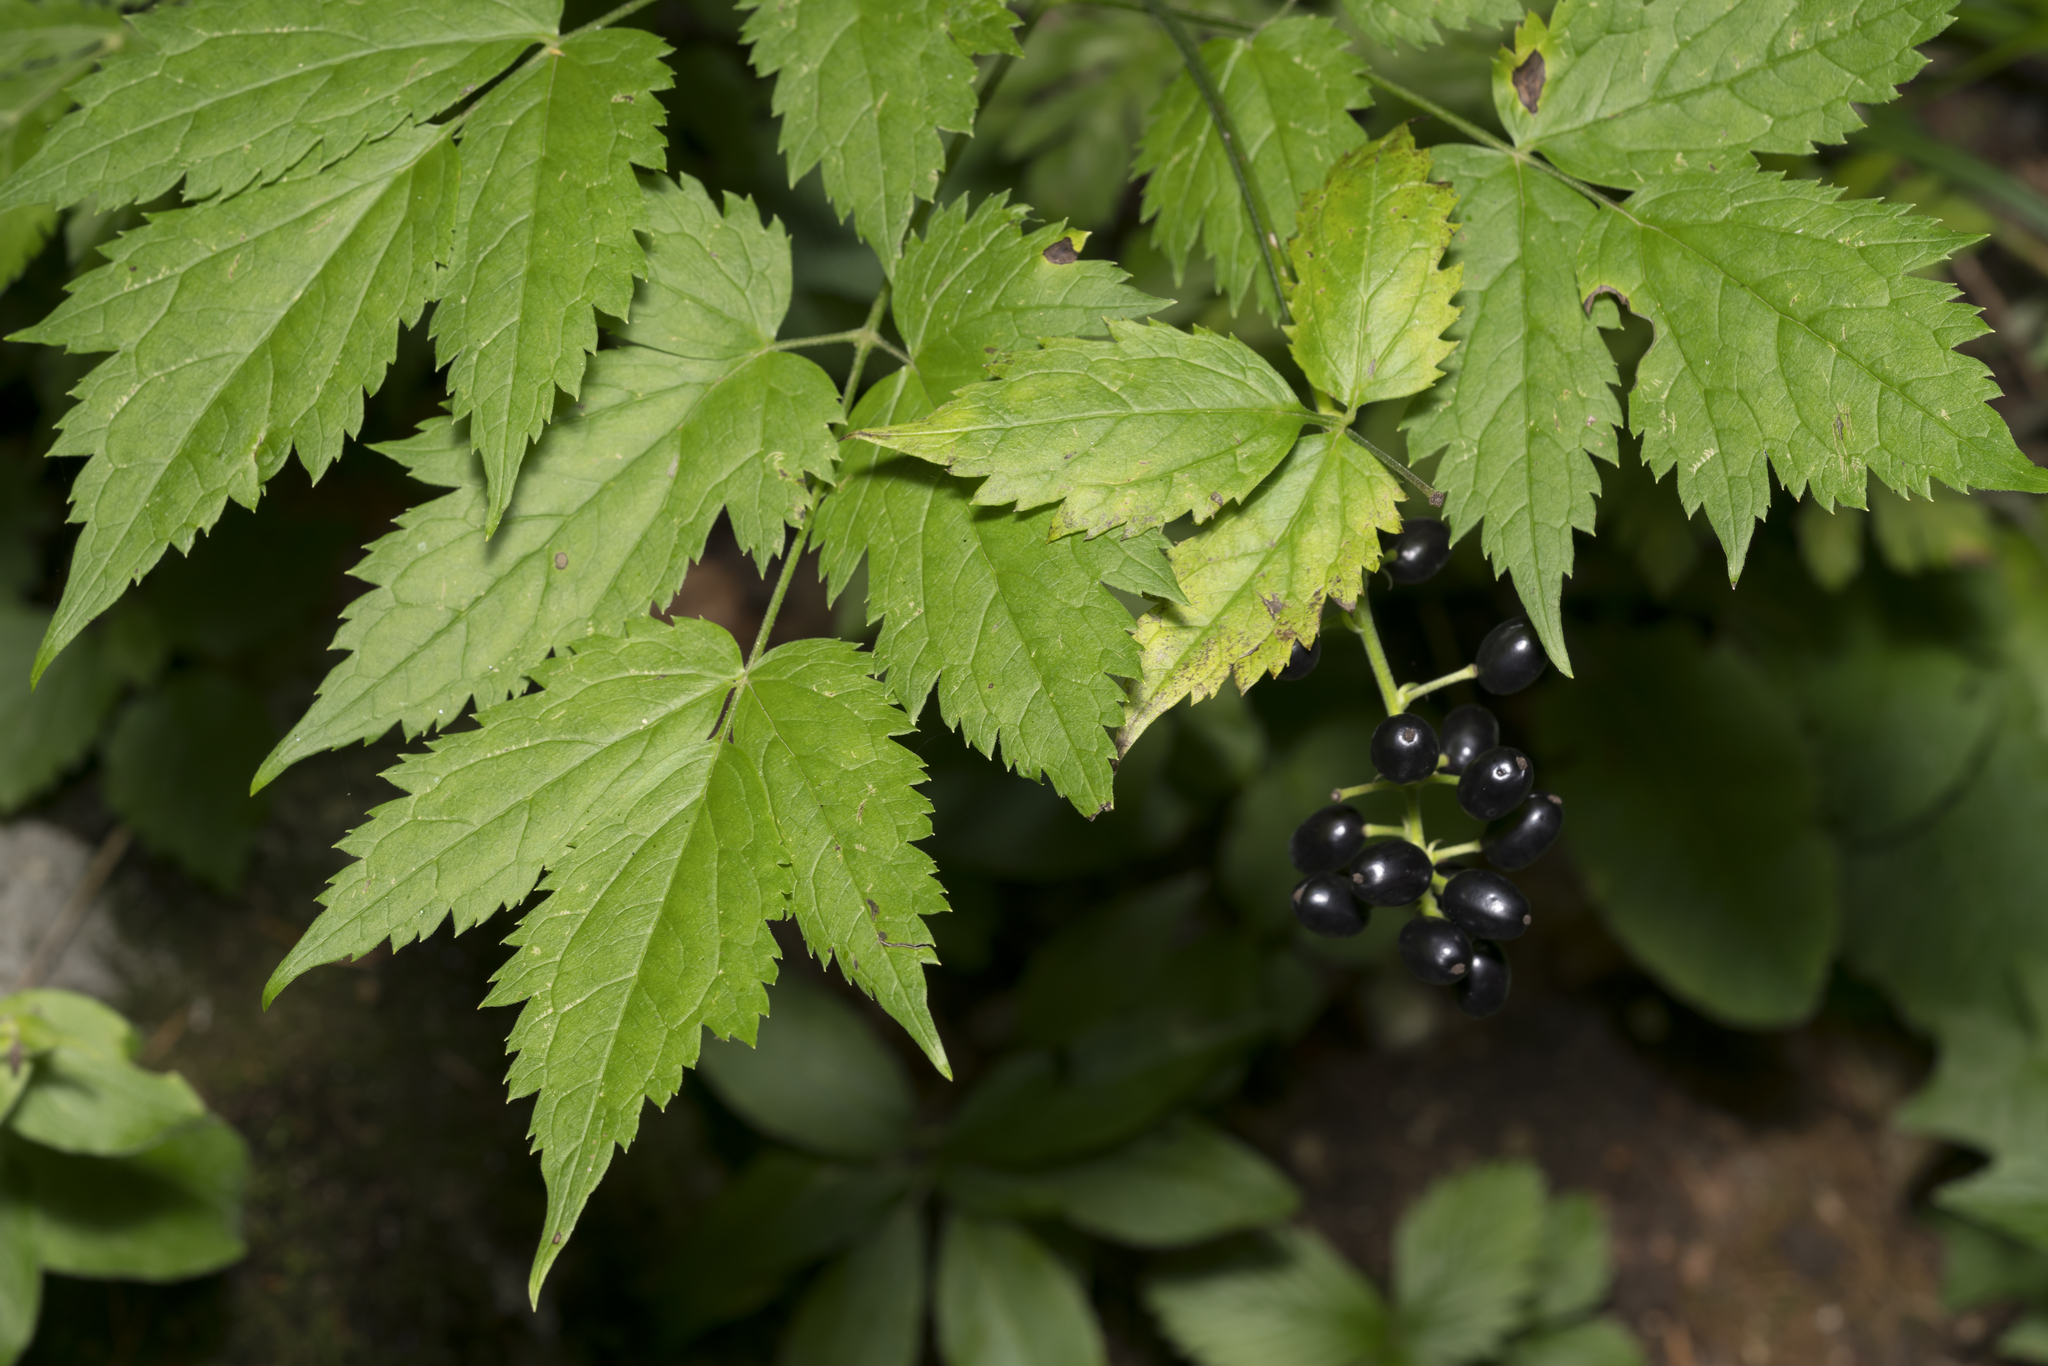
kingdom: Plantae
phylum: Tracheophyta
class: Magnoliopsida
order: Ranunculales
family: Ranunculaceae
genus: Actaea
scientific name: Actaea spicata
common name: Baneberry
